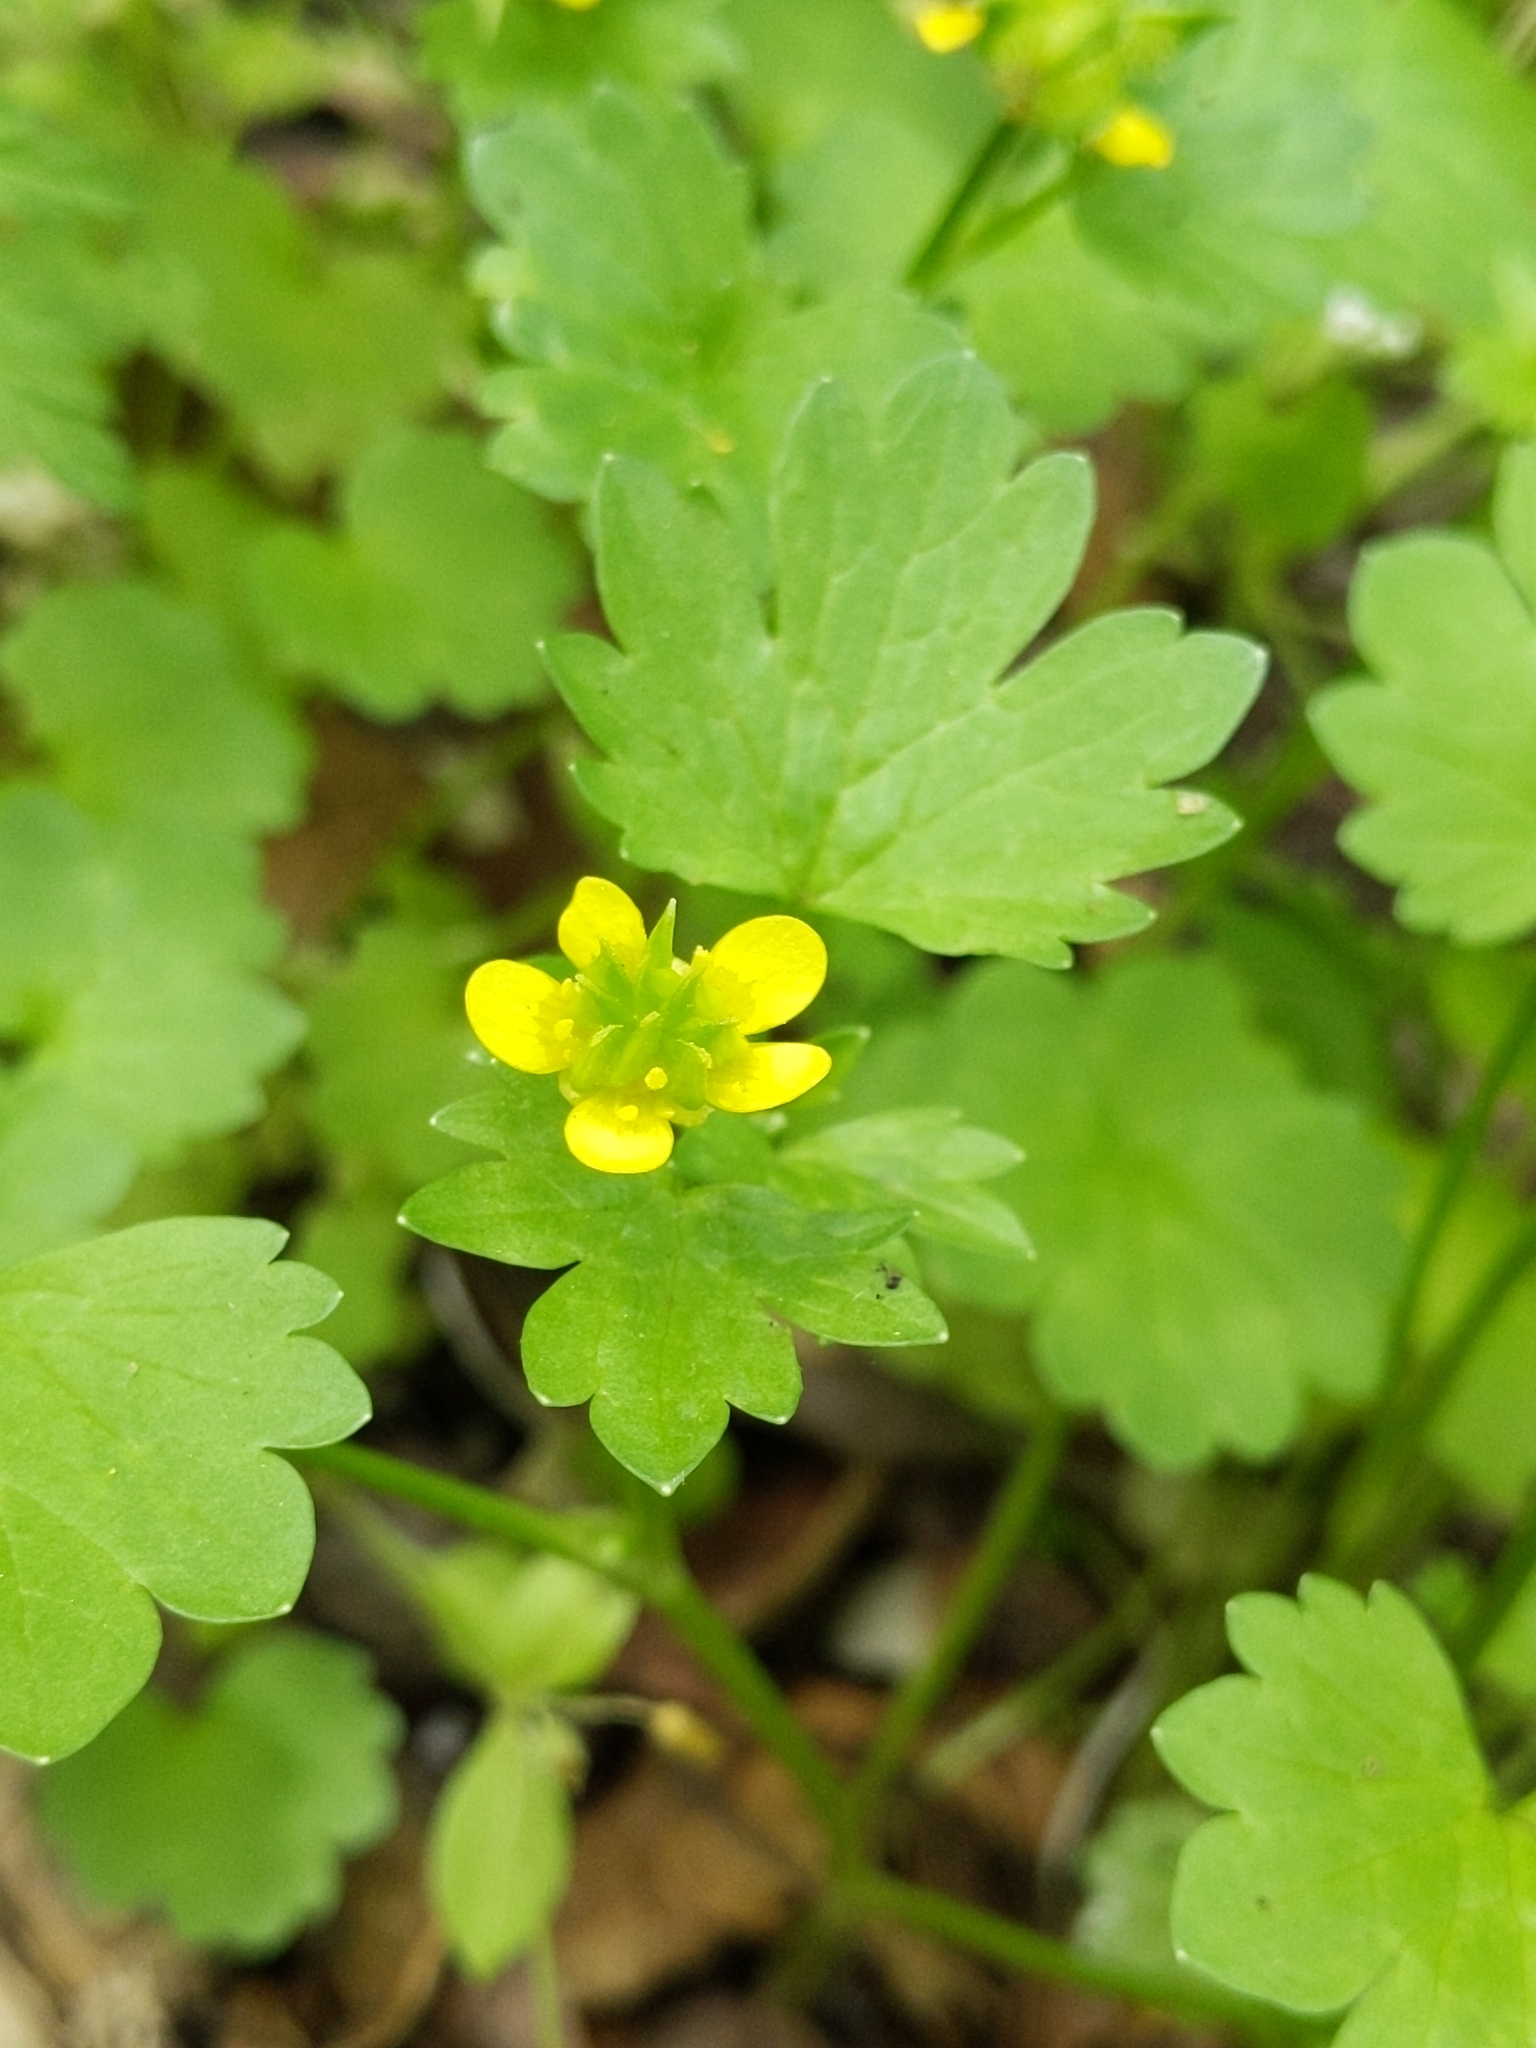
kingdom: Plantae
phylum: Tracheophyta
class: Magnoliopsida
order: Ranunculales
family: Ranunculaceae
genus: Ranunculus
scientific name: Ranunculus muricatus
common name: Rough-fruited buttercup
